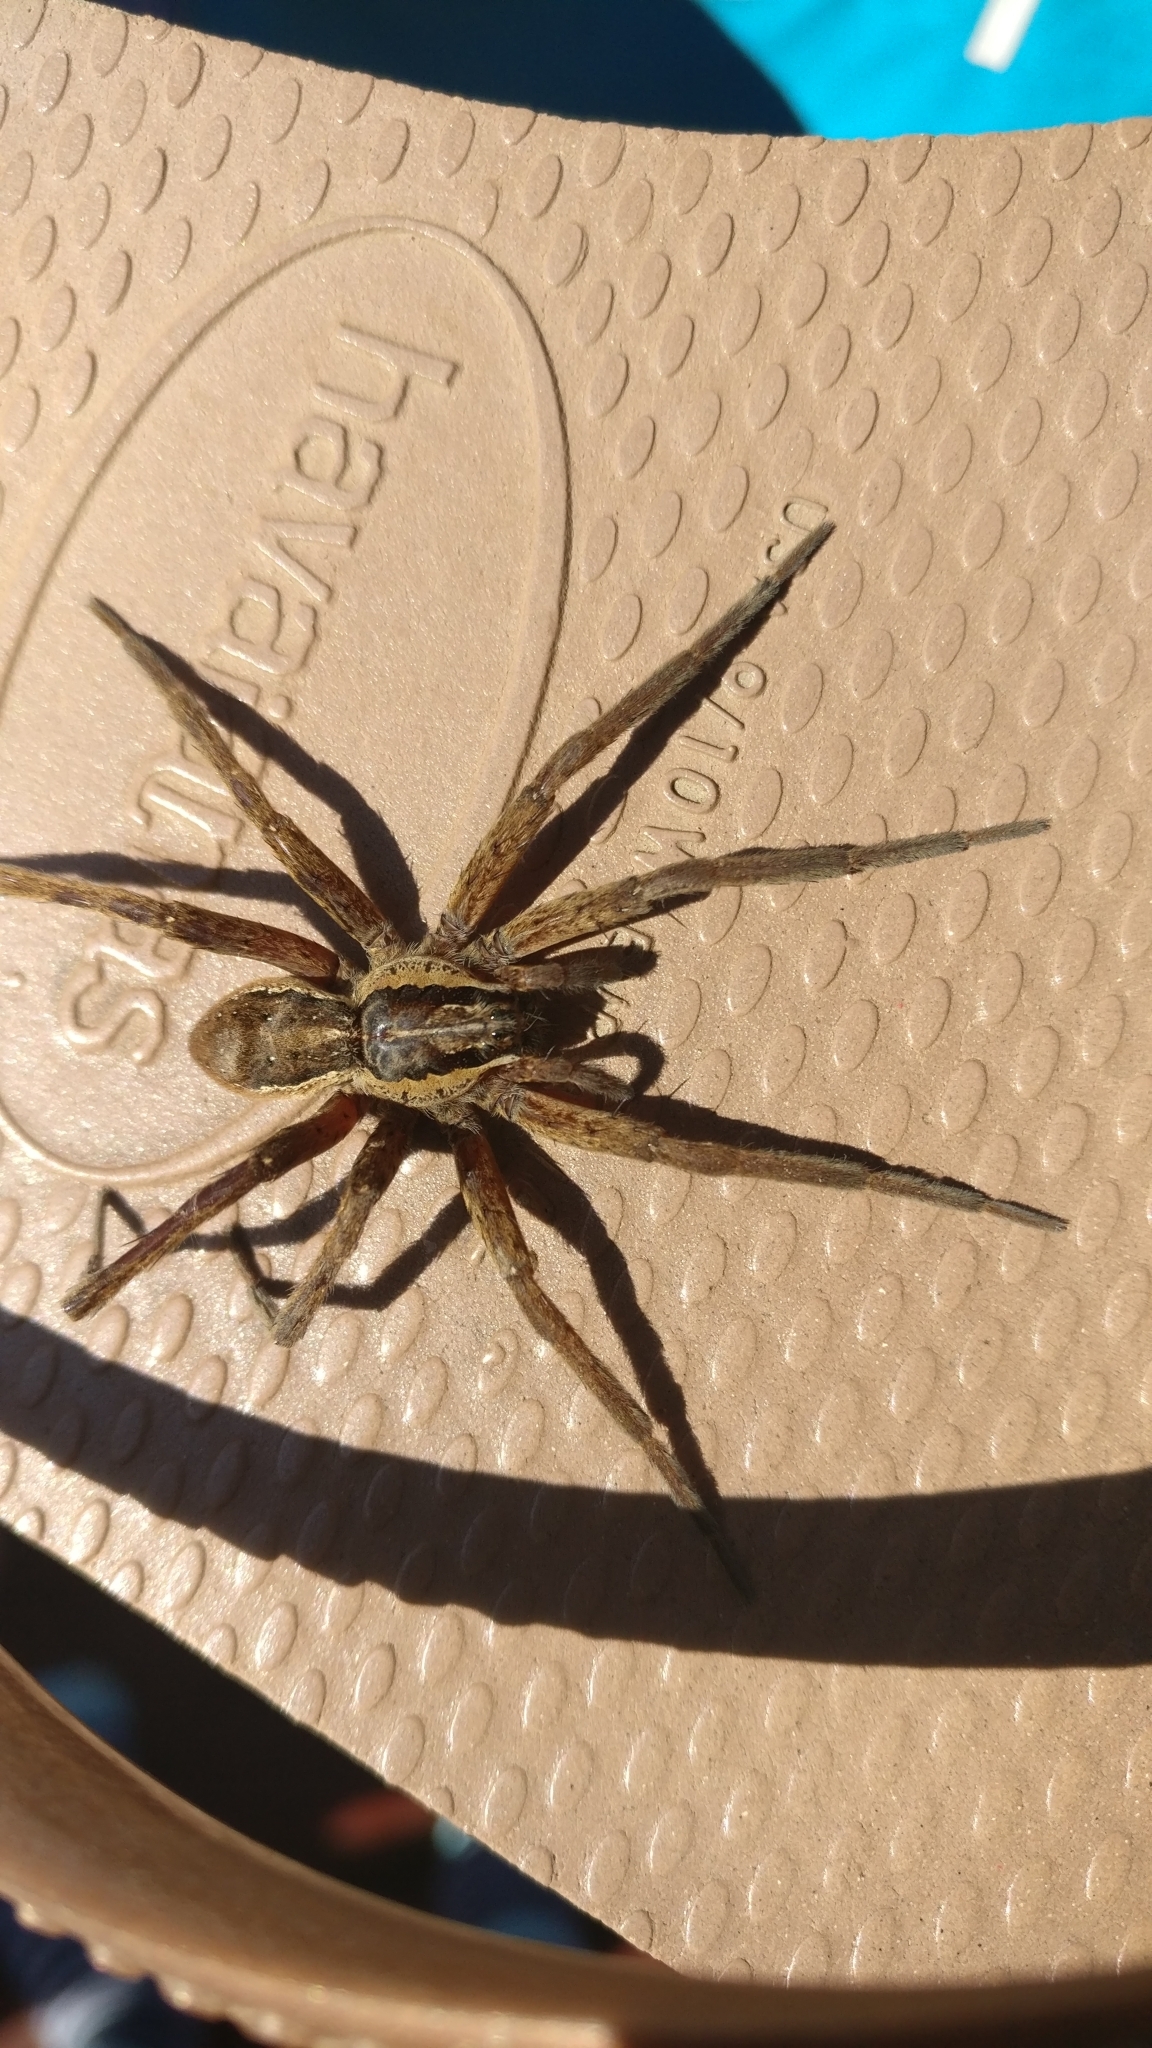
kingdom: Animalia
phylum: Arthropoda
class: Arachnida
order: Araneae
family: Pisauridae
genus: Dolomedes
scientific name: Dolomedes minor
